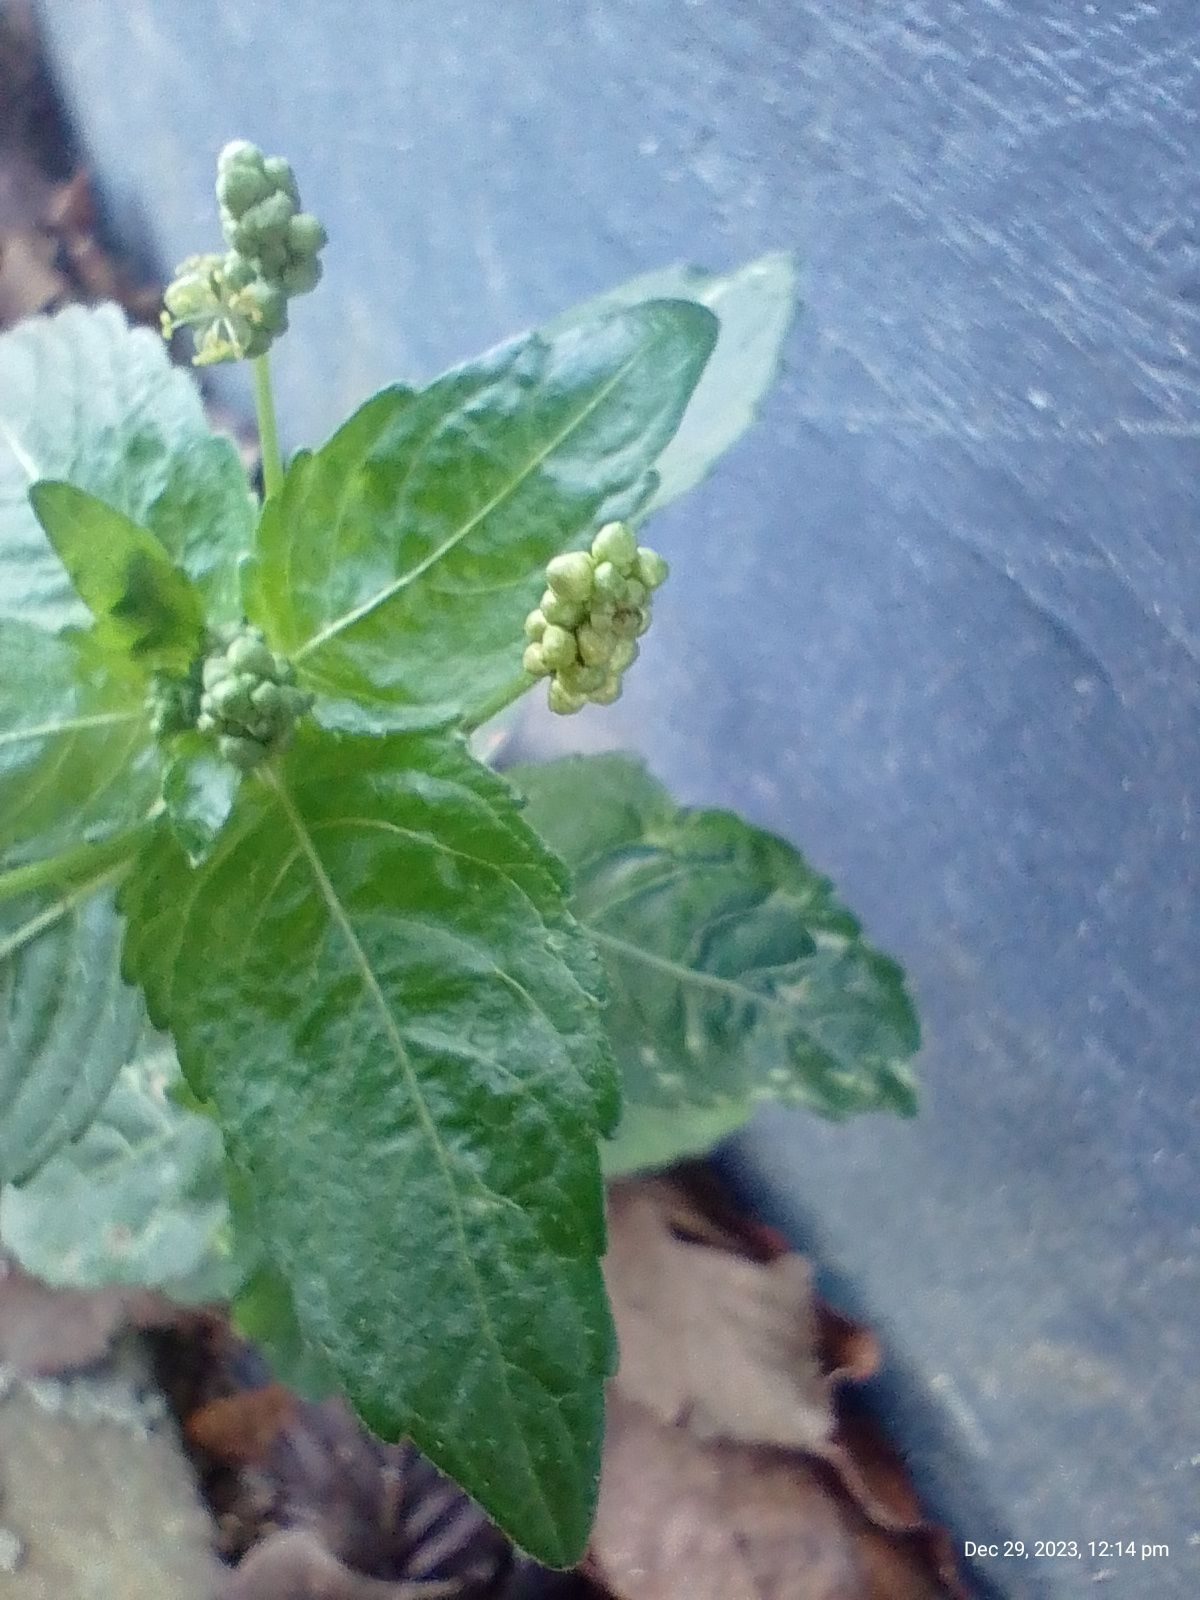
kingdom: Plantae
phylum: Tracheophyta
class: Magnoliopsida
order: Malpighiales
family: Euphorbiaceae
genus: Mercurialis
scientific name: Mercurialis annua
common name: Annual mercury
